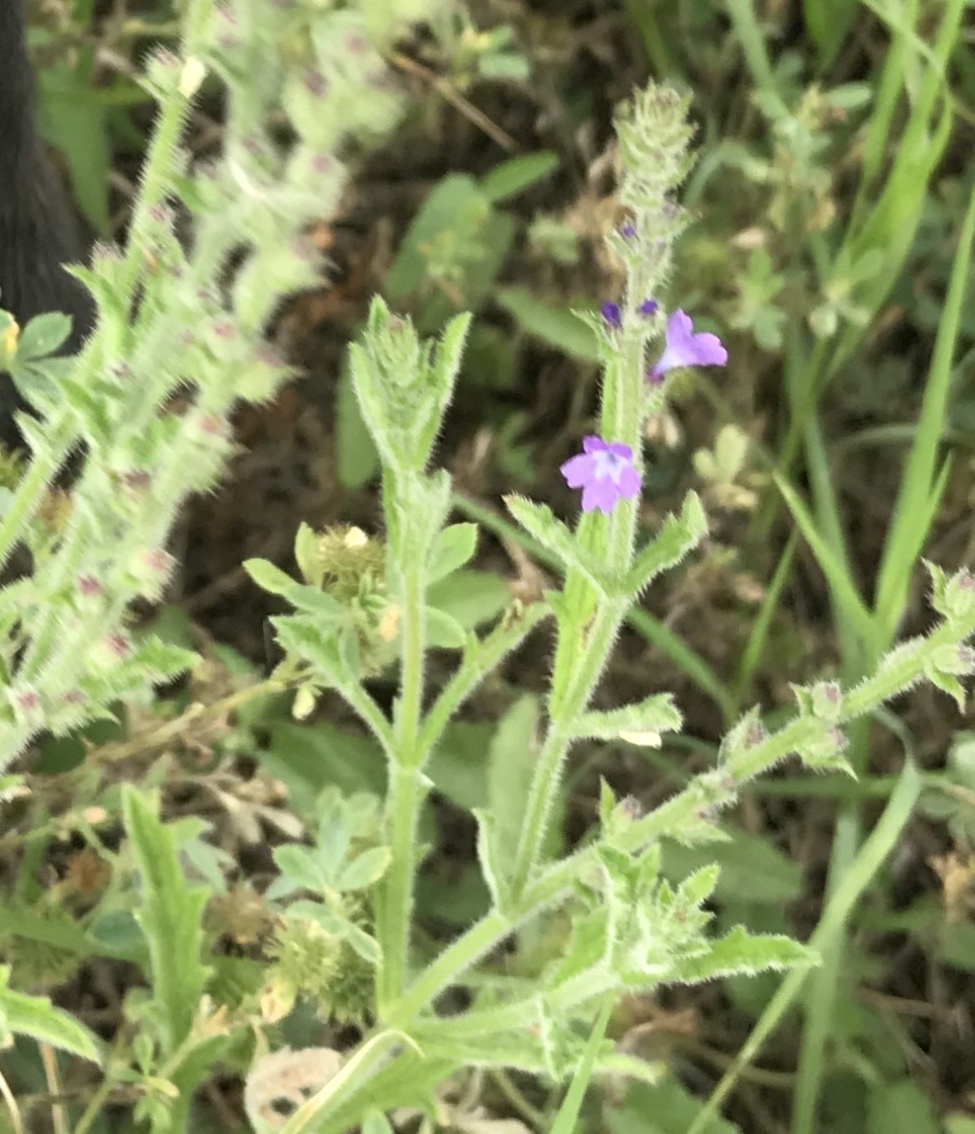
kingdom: Plantae
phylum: Tracheophyta
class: Magnoliopsida
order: Lamiales
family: Verbenaceae
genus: Verbena
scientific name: Verbena canescens
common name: Gray vervain
